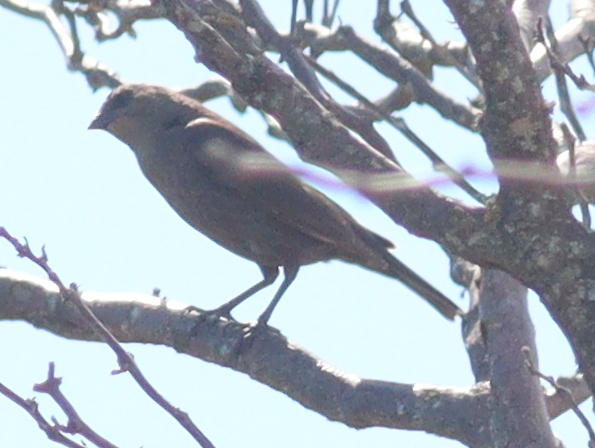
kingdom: Animalia
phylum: Chordata
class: Aves
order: Passeriformes
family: Icteridae
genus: Agelaioides
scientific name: Agelaioides badius
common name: Baywing
